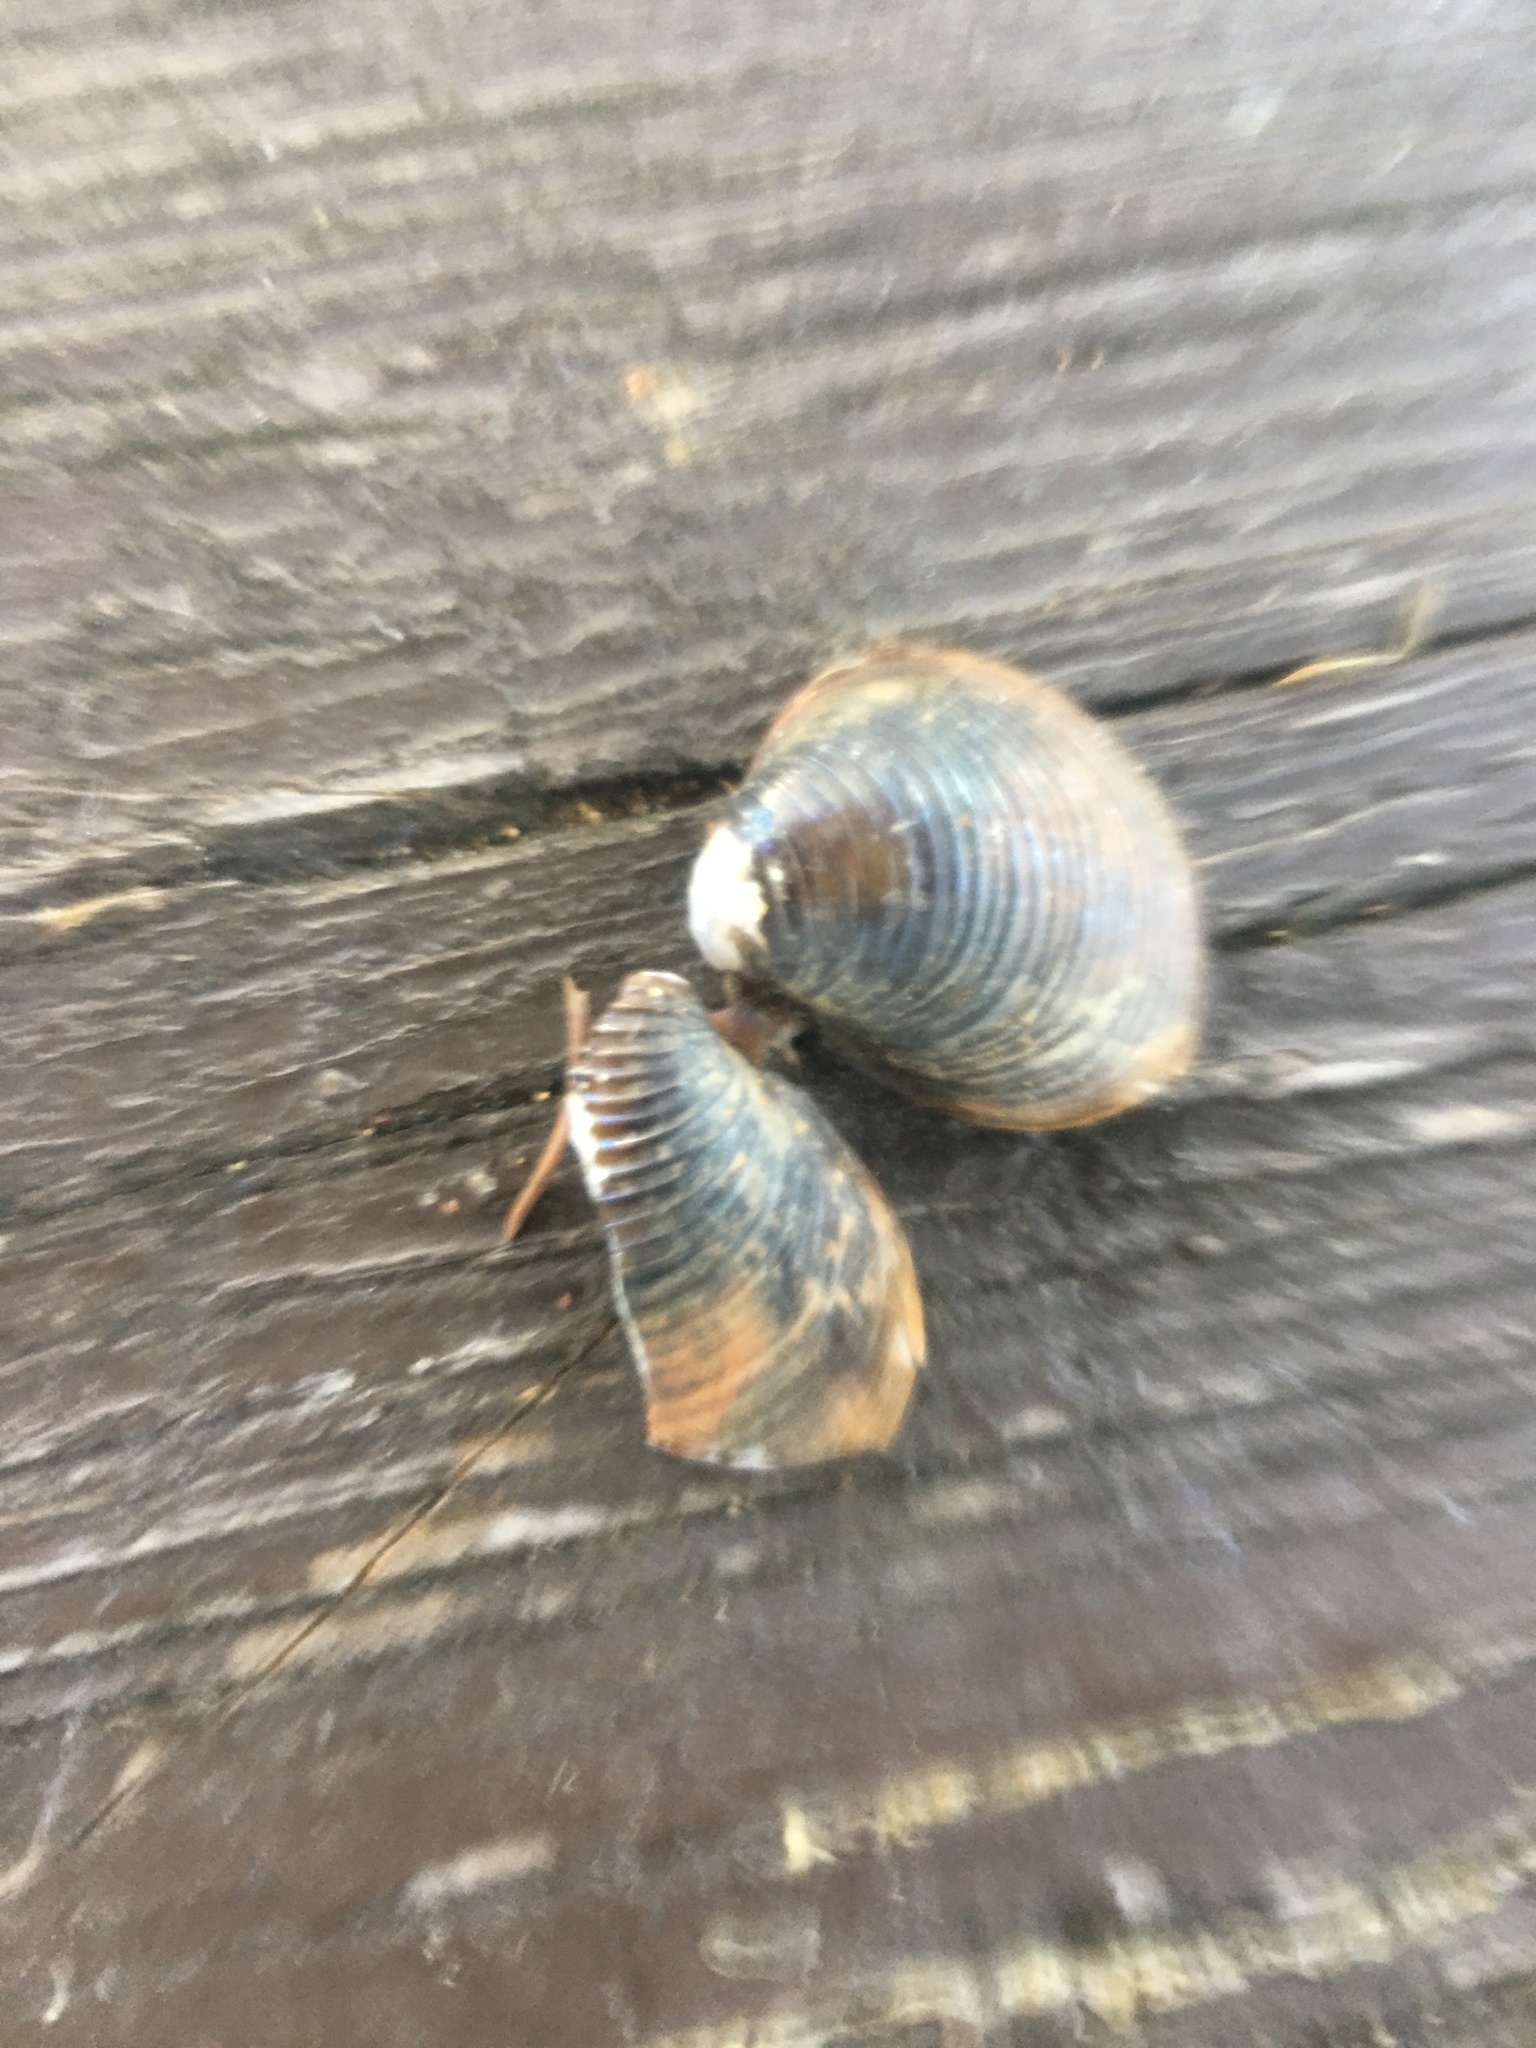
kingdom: Animalia
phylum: Mollusca
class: Bivalvia
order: Venerida
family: Cyrenidae
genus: Corbicula
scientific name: Corbicula fluminea
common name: Asian clam
